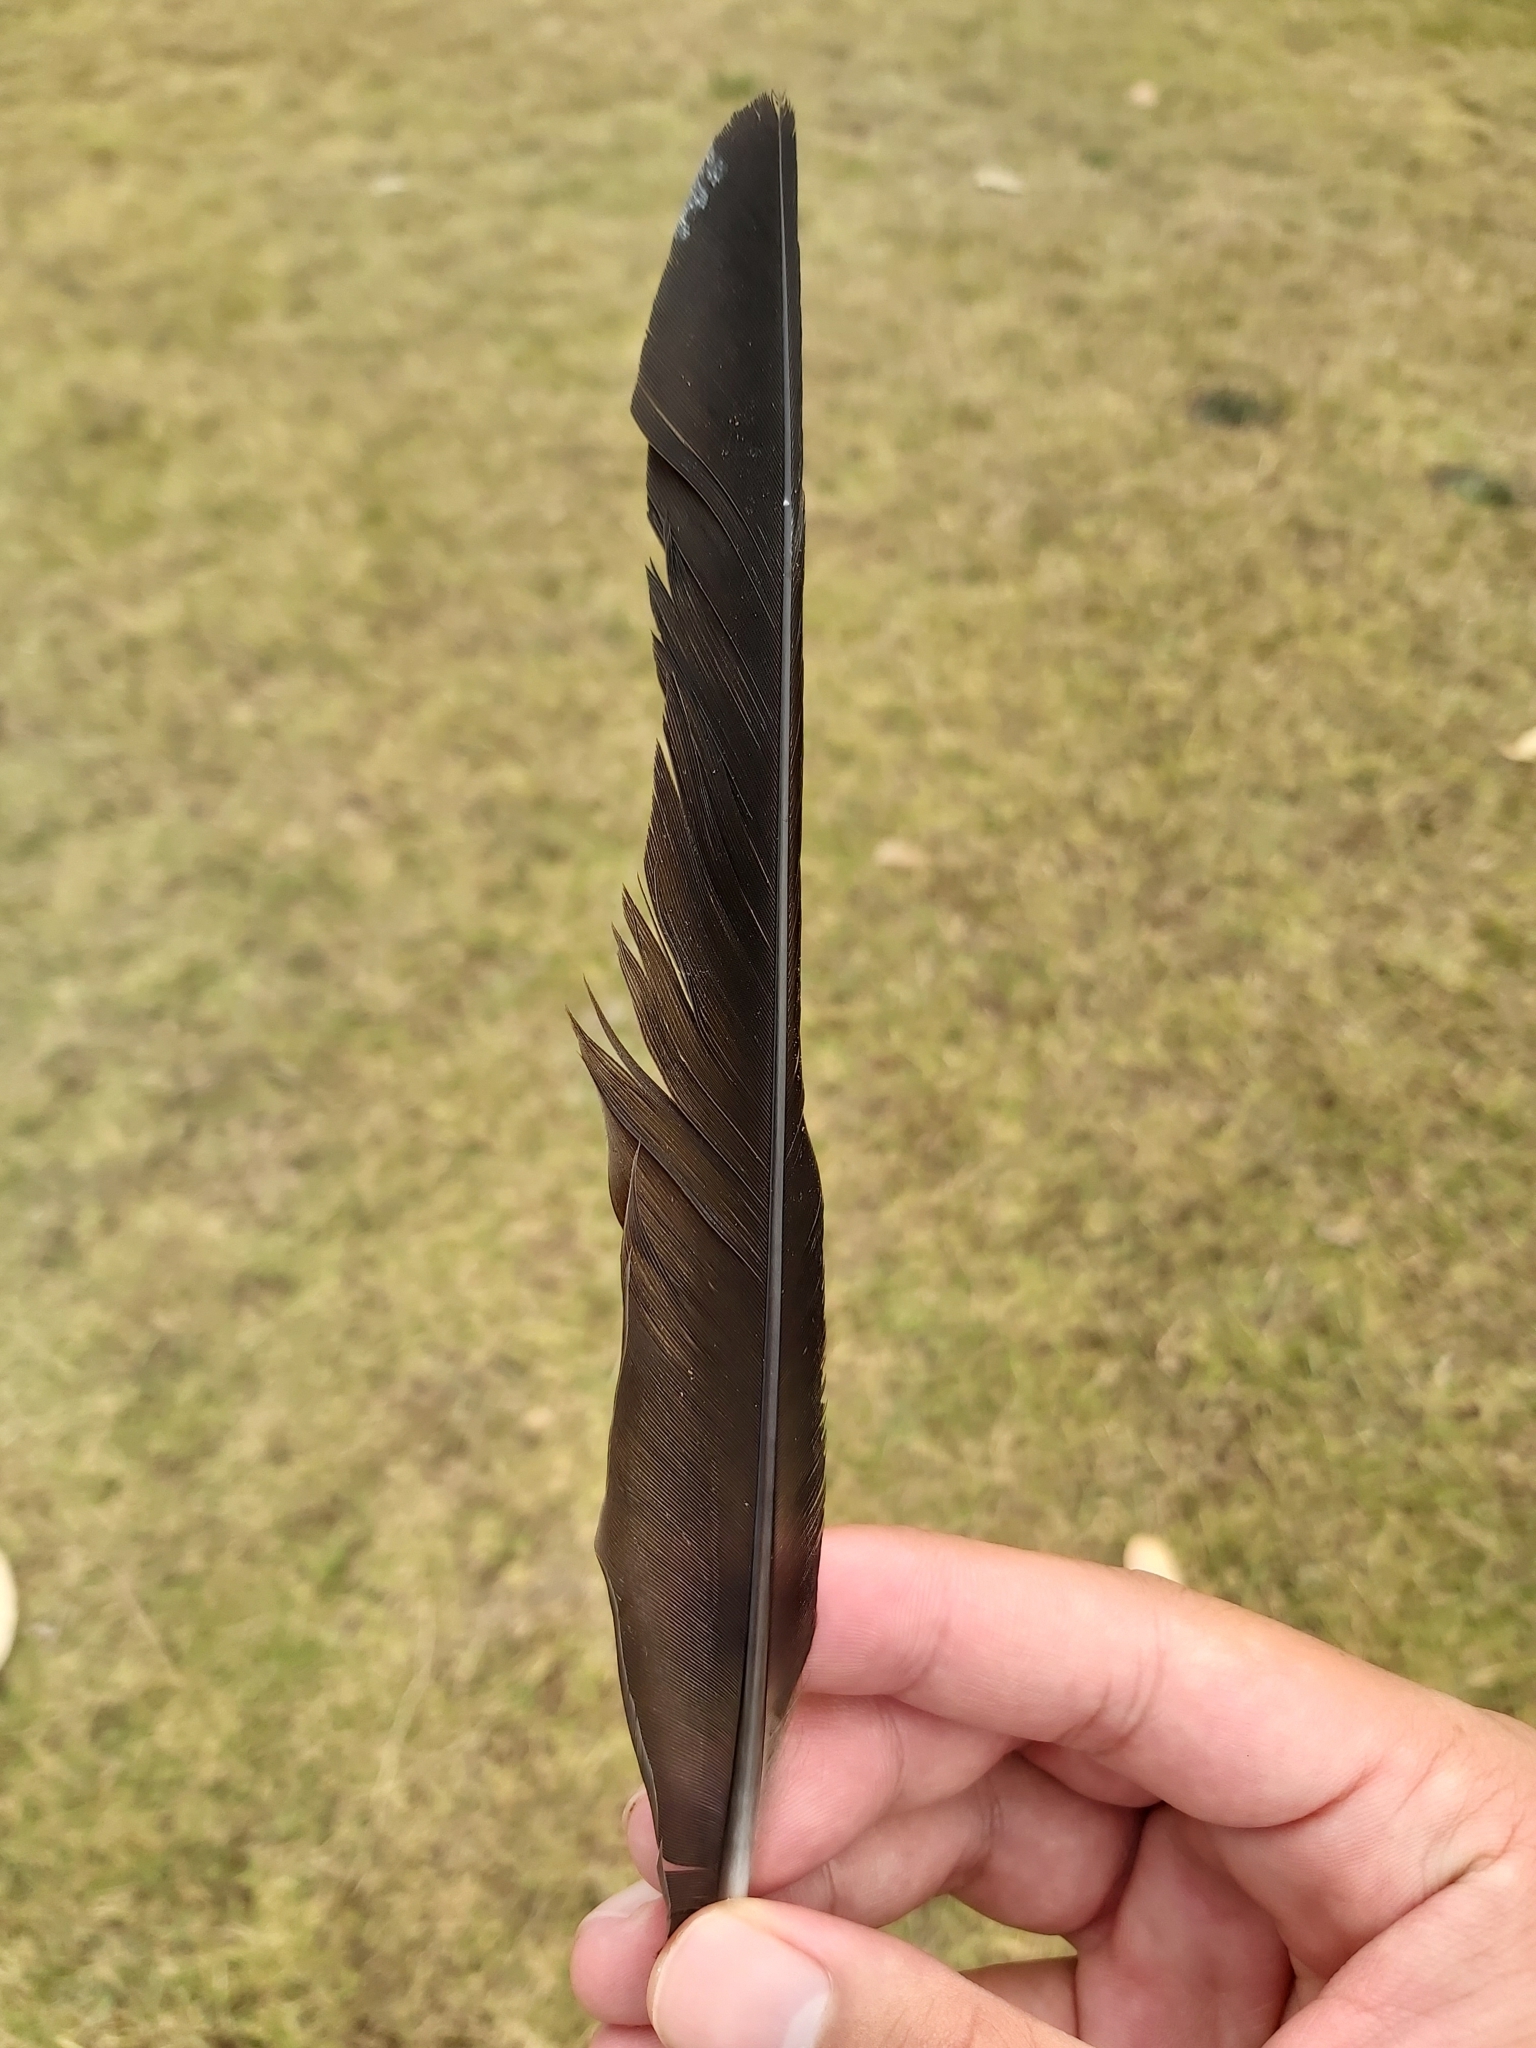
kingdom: Animalia
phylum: Chordata
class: Aves
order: Passeriformes
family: Cracticidae
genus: Gymnorhina
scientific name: Gymnorhina tibicen
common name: Australian magpie
